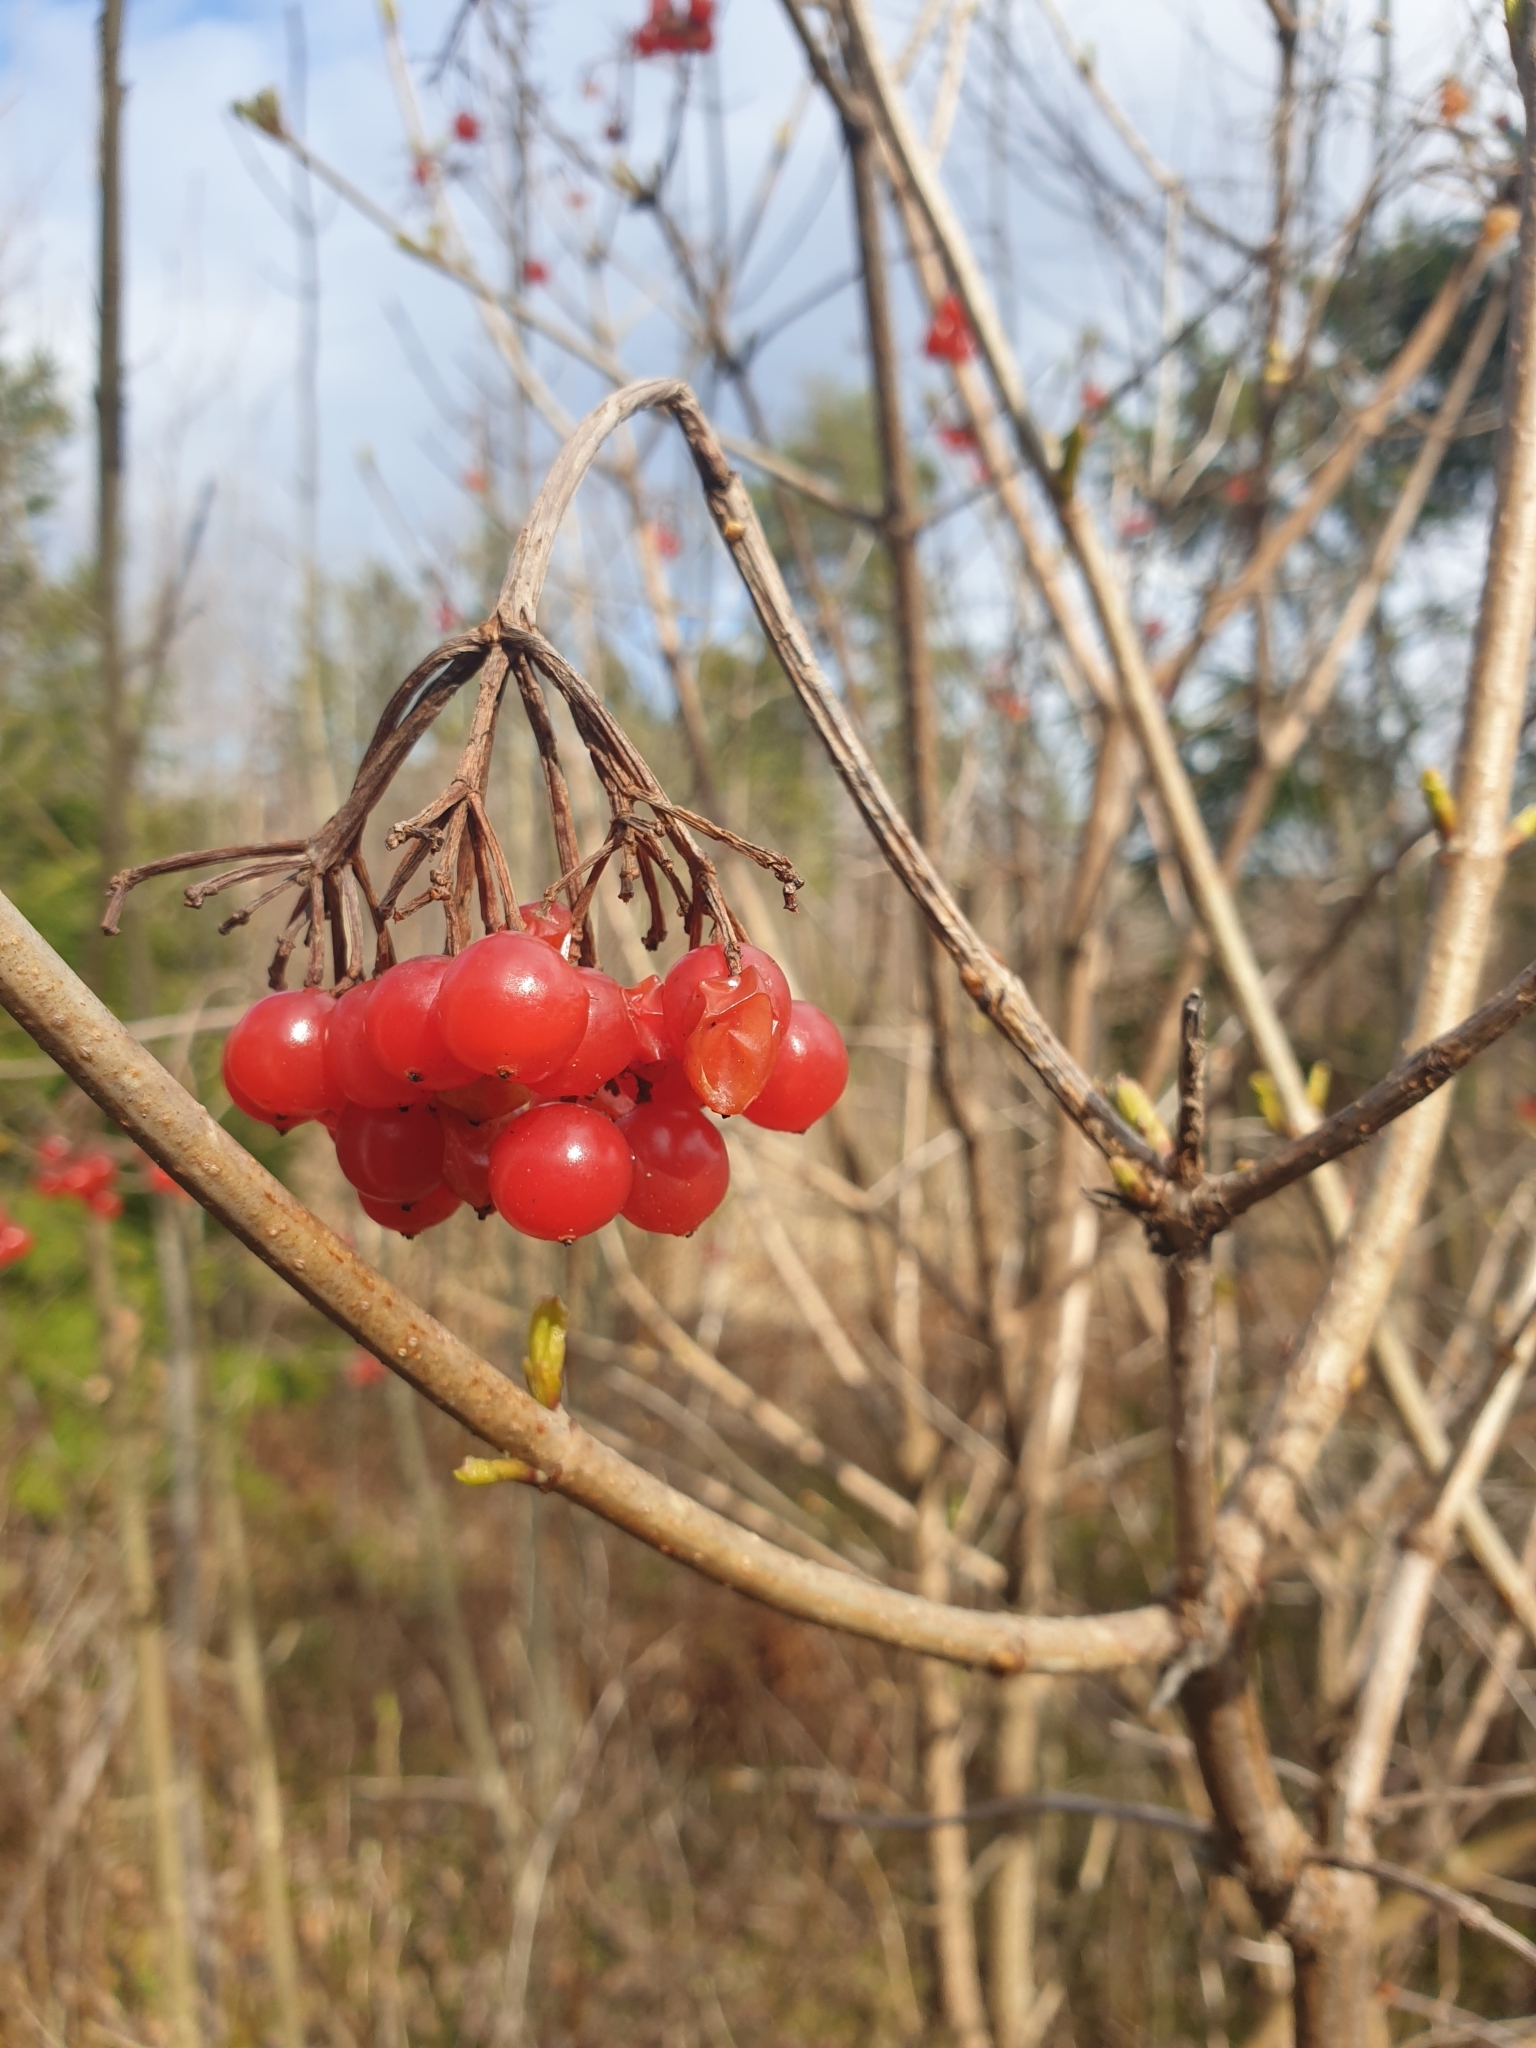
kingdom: Plantae
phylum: Tracheophyta
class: Magnoliopsida
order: Dipsacales
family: Viburnaceae
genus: Viburnum
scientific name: Viburnum opulus
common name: Guelder-rose
